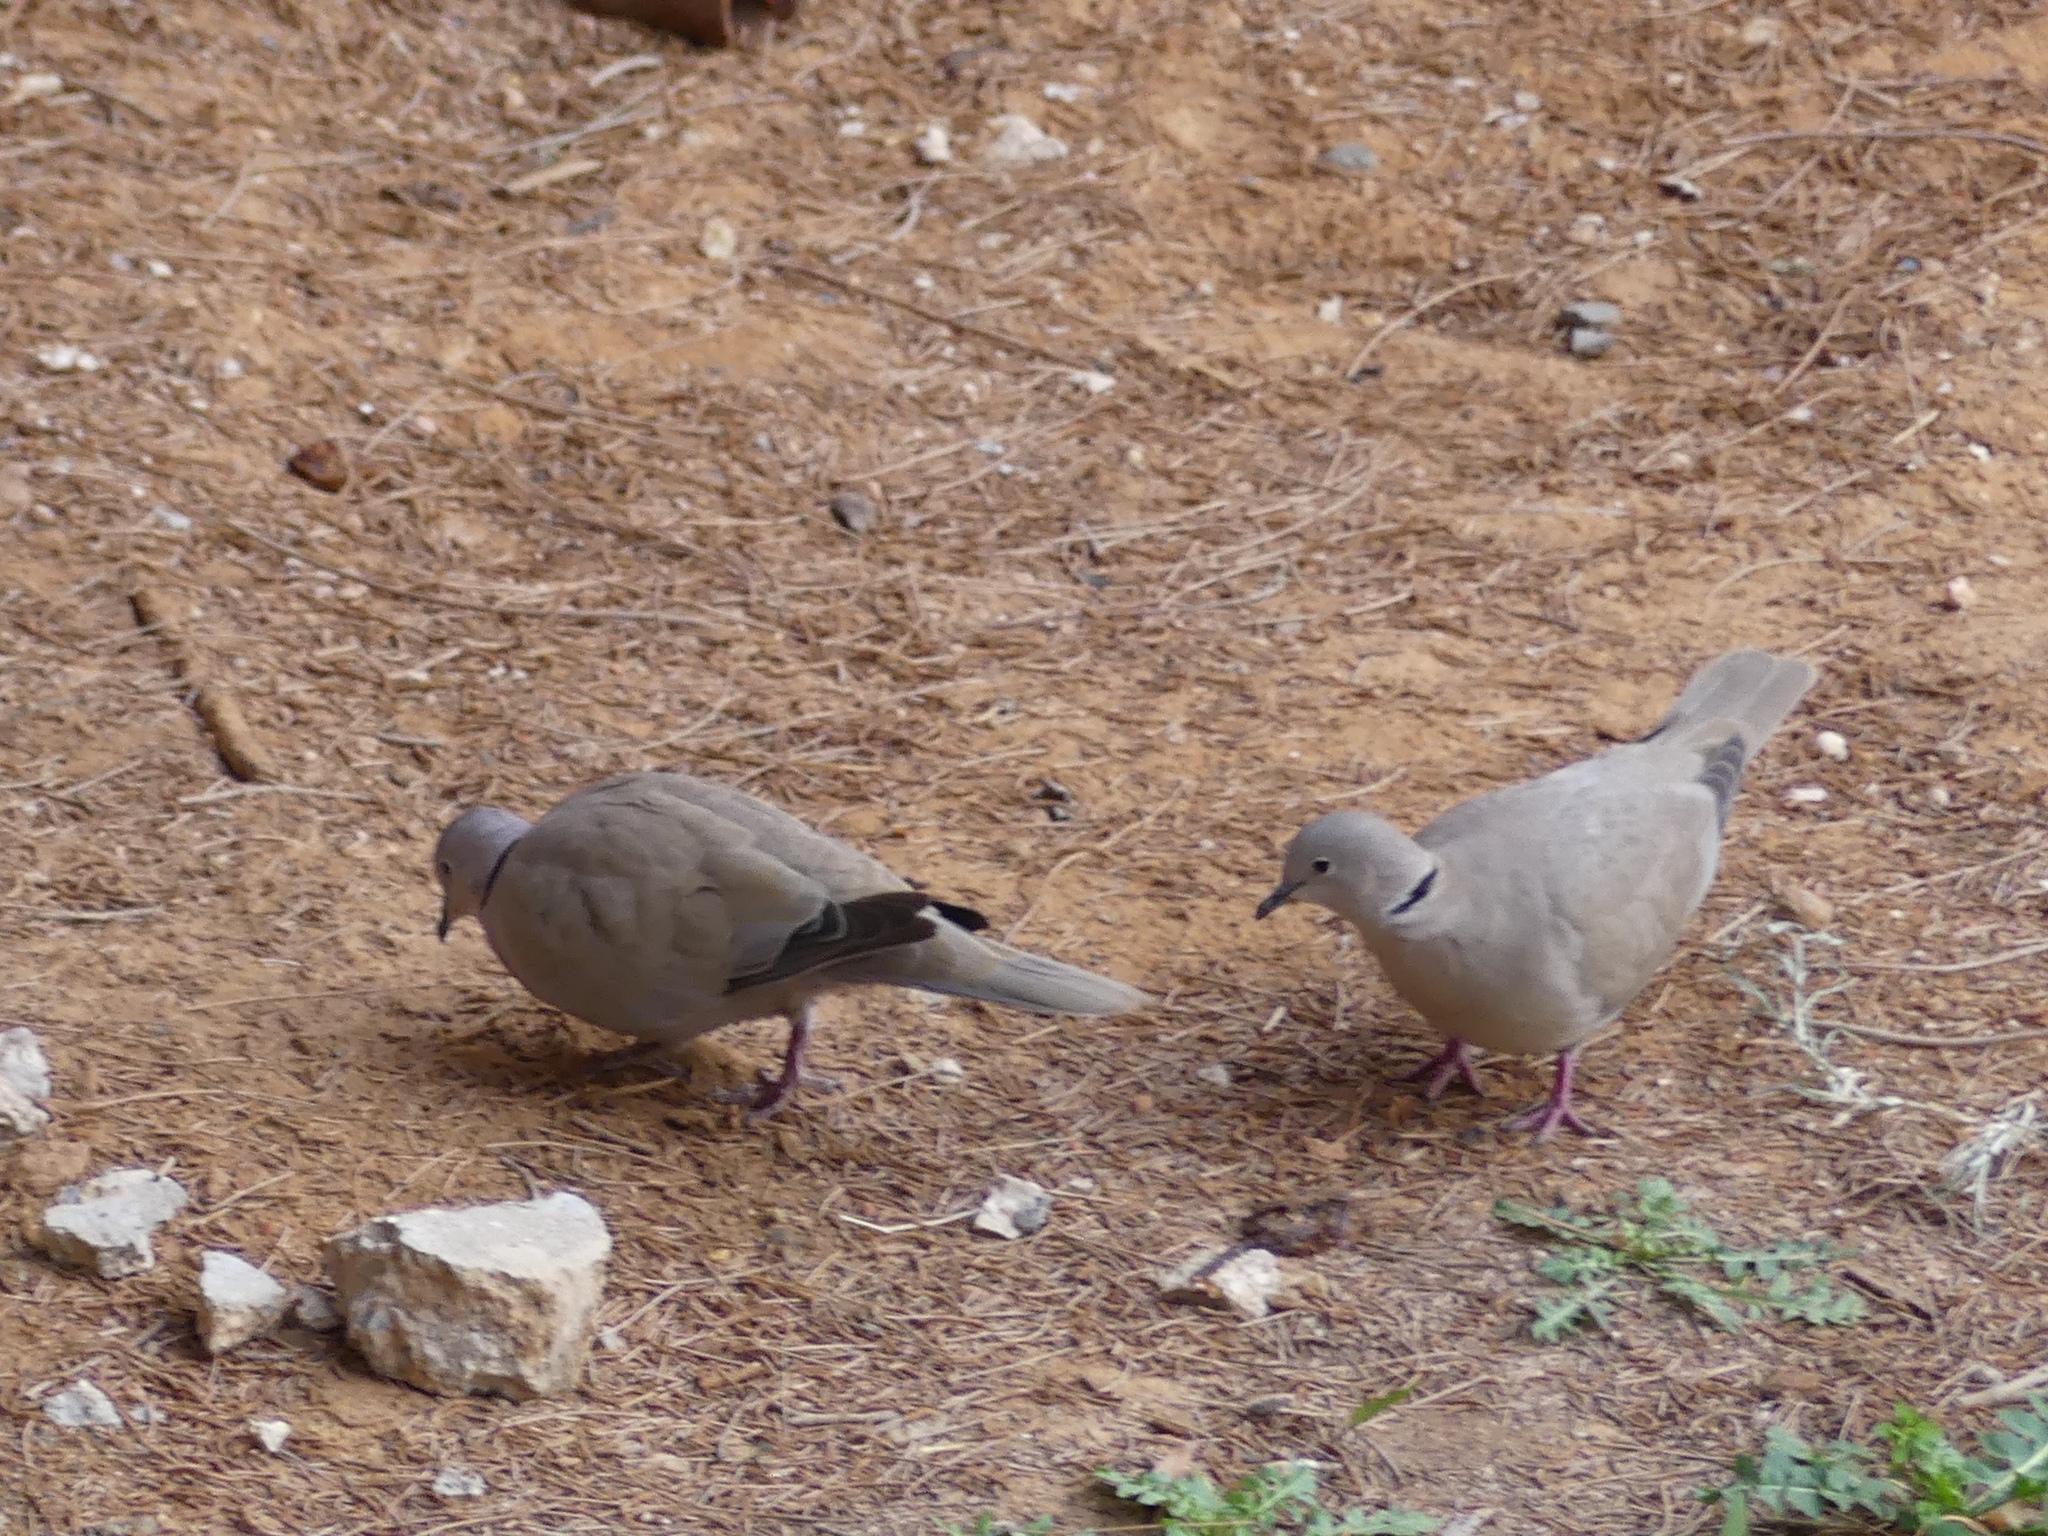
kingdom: Animalia
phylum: Chordata
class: Aves
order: Columbiformes
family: Columbidae
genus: Streptopelia
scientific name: Streptopelia decaocto
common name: Eurasian collared dove
